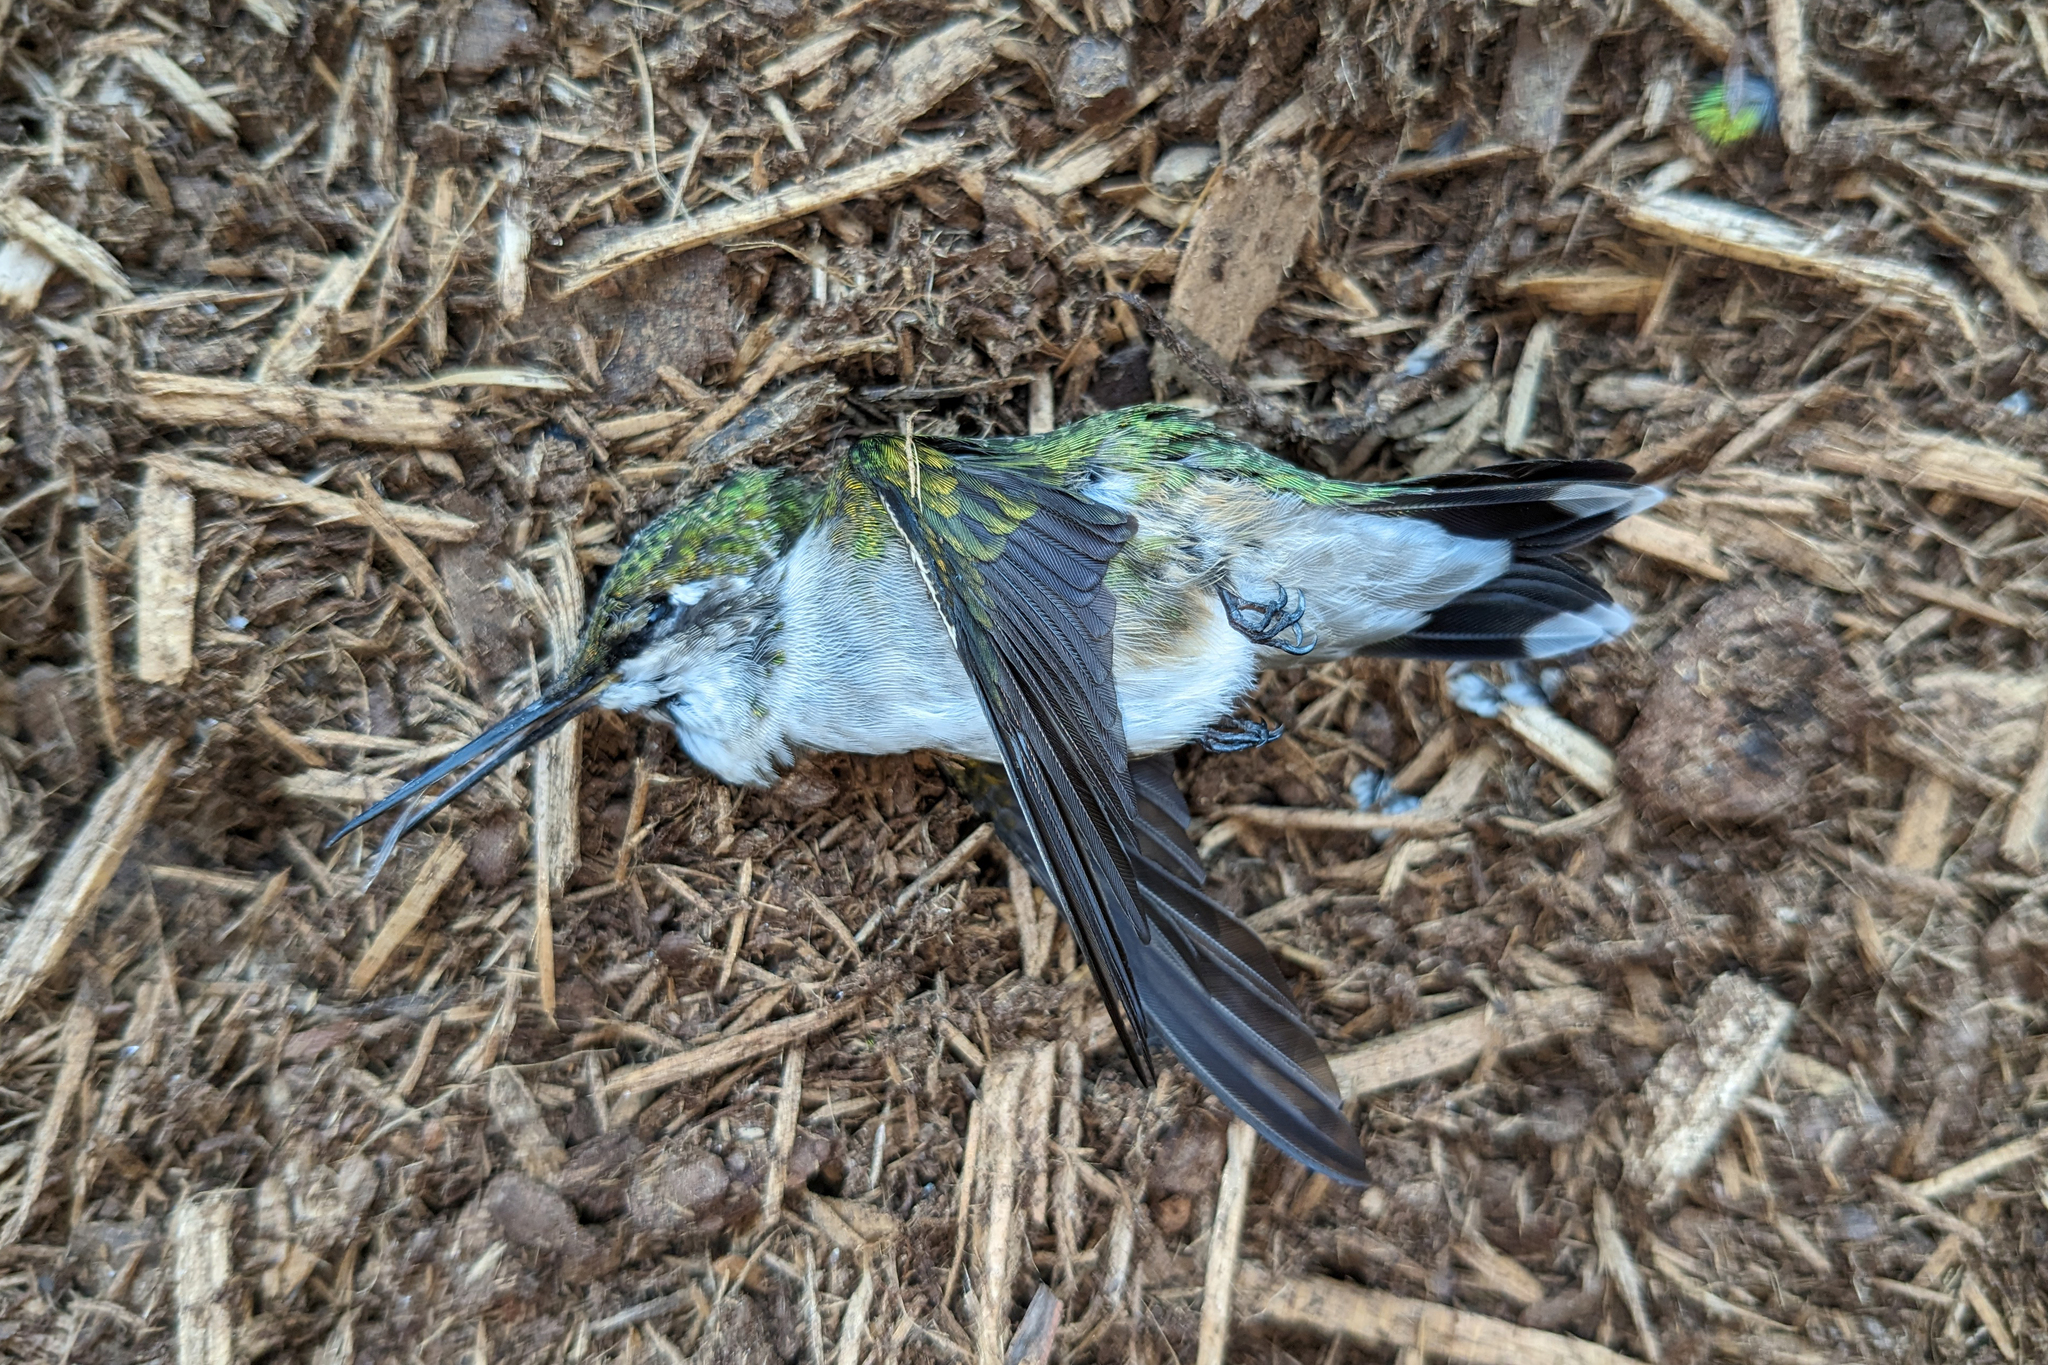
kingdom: Animalia
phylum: Chordata
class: Aves
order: Apodiformes
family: Trochilidae
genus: Archilochus
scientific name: Archilochus colubris
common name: Ruby-throated hummingbird
